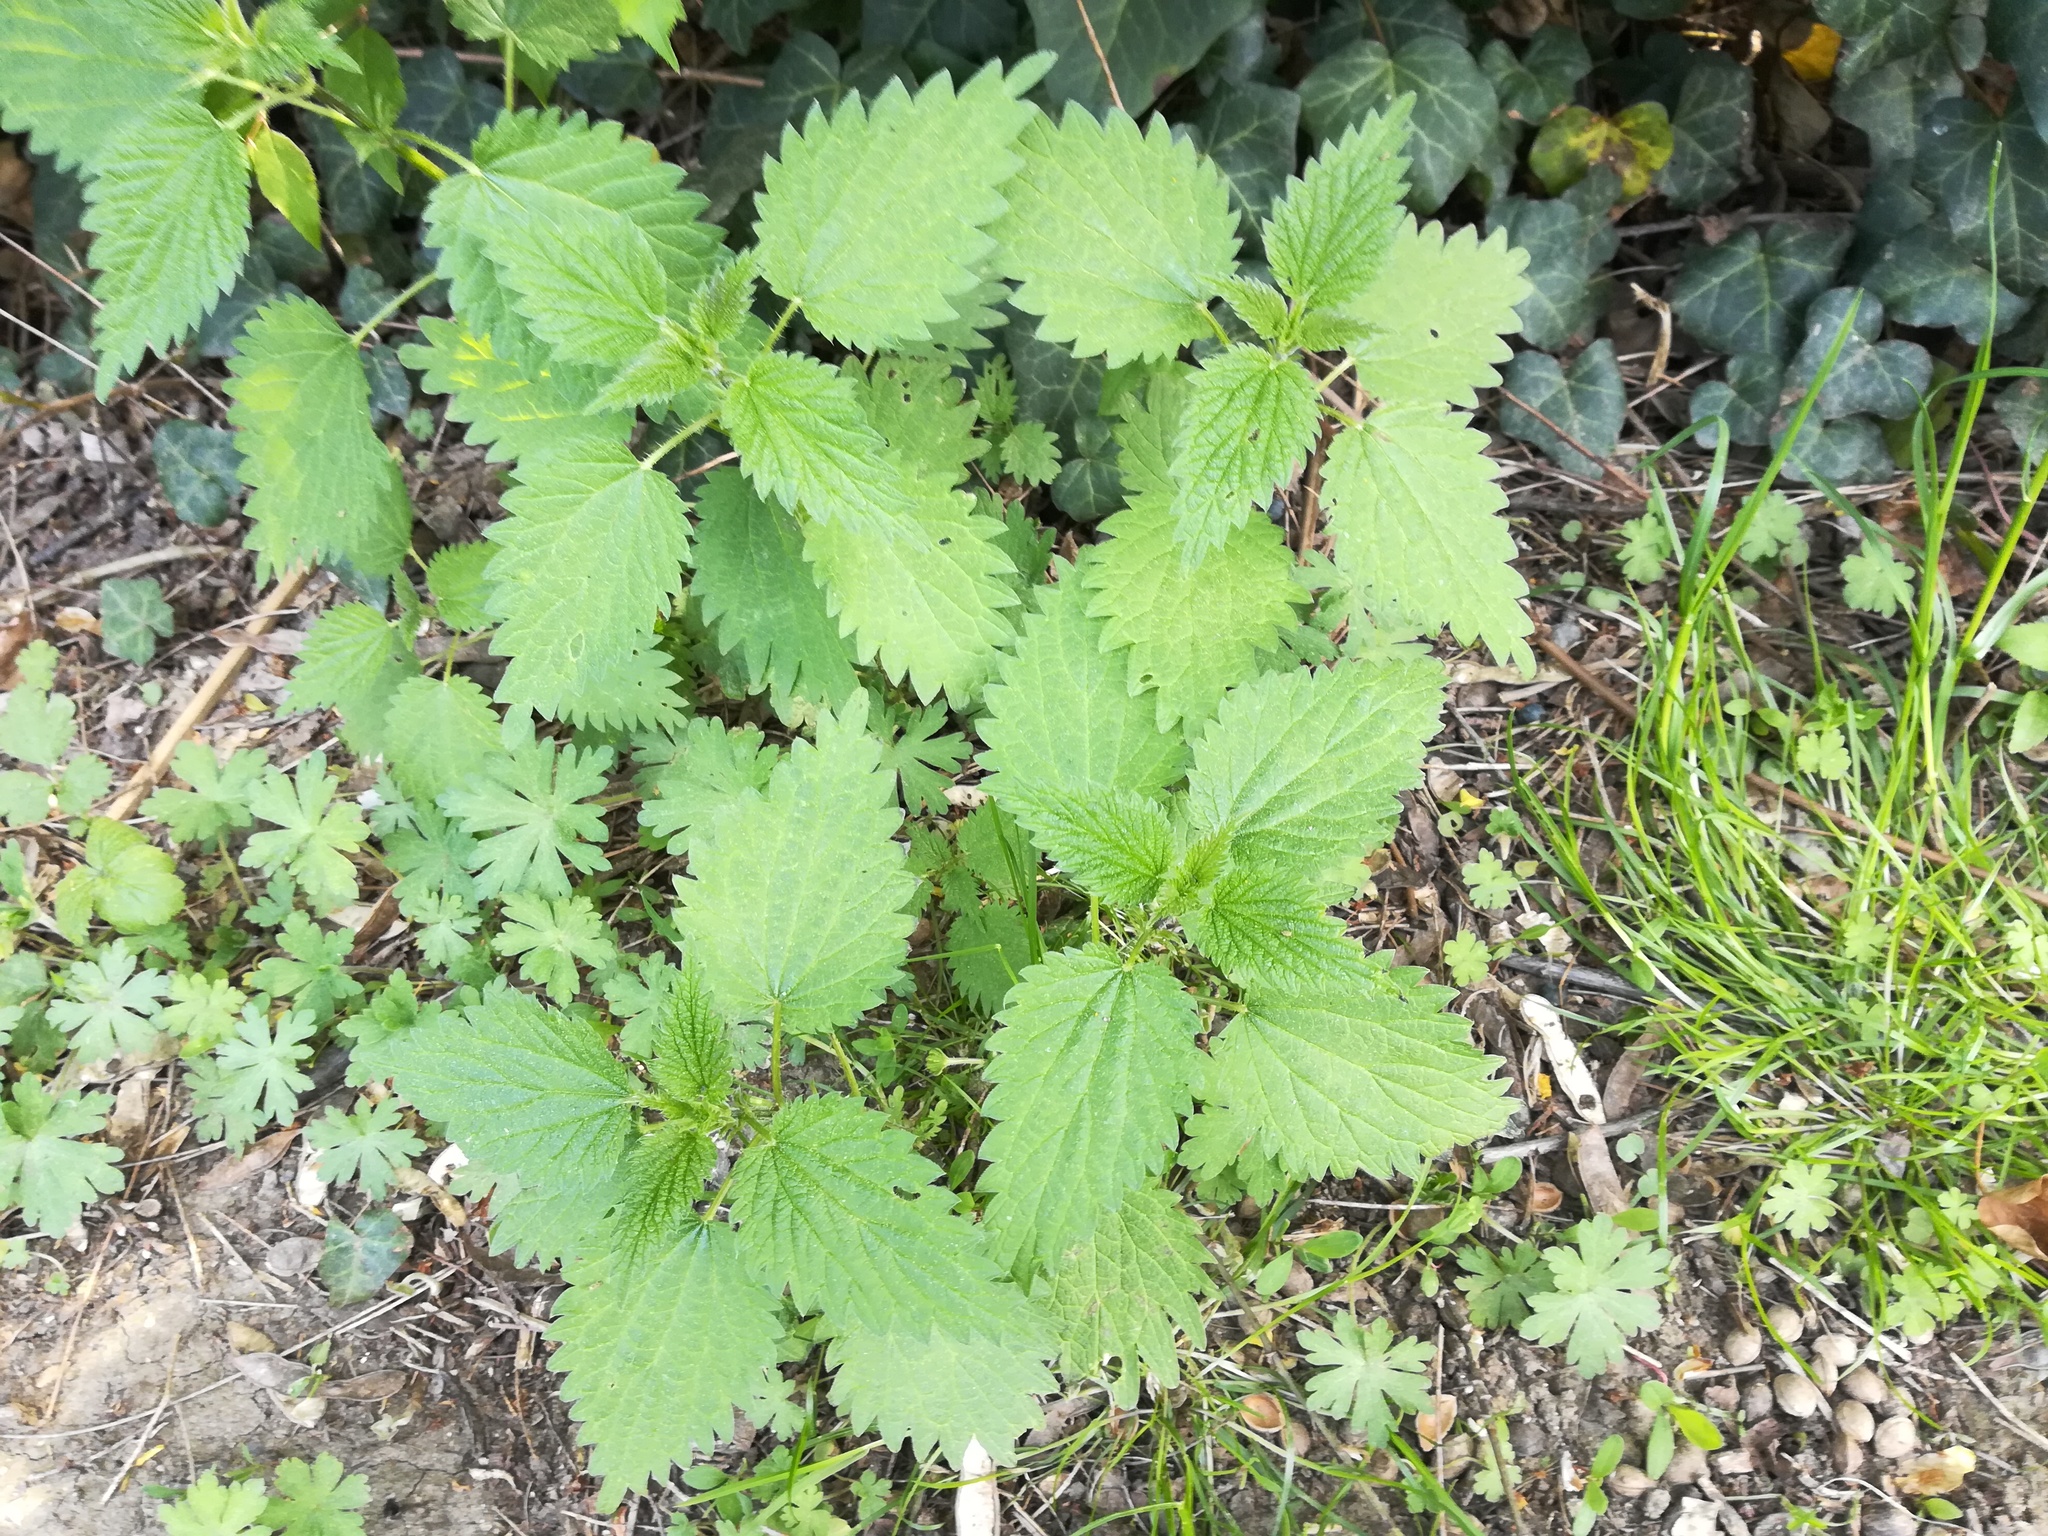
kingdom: Plantae
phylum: Tracheophyta
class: Magnoliopsida
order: Rosales
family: Urticaceae
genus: Urtica
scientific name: Urtica dioica
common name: Common nettle
